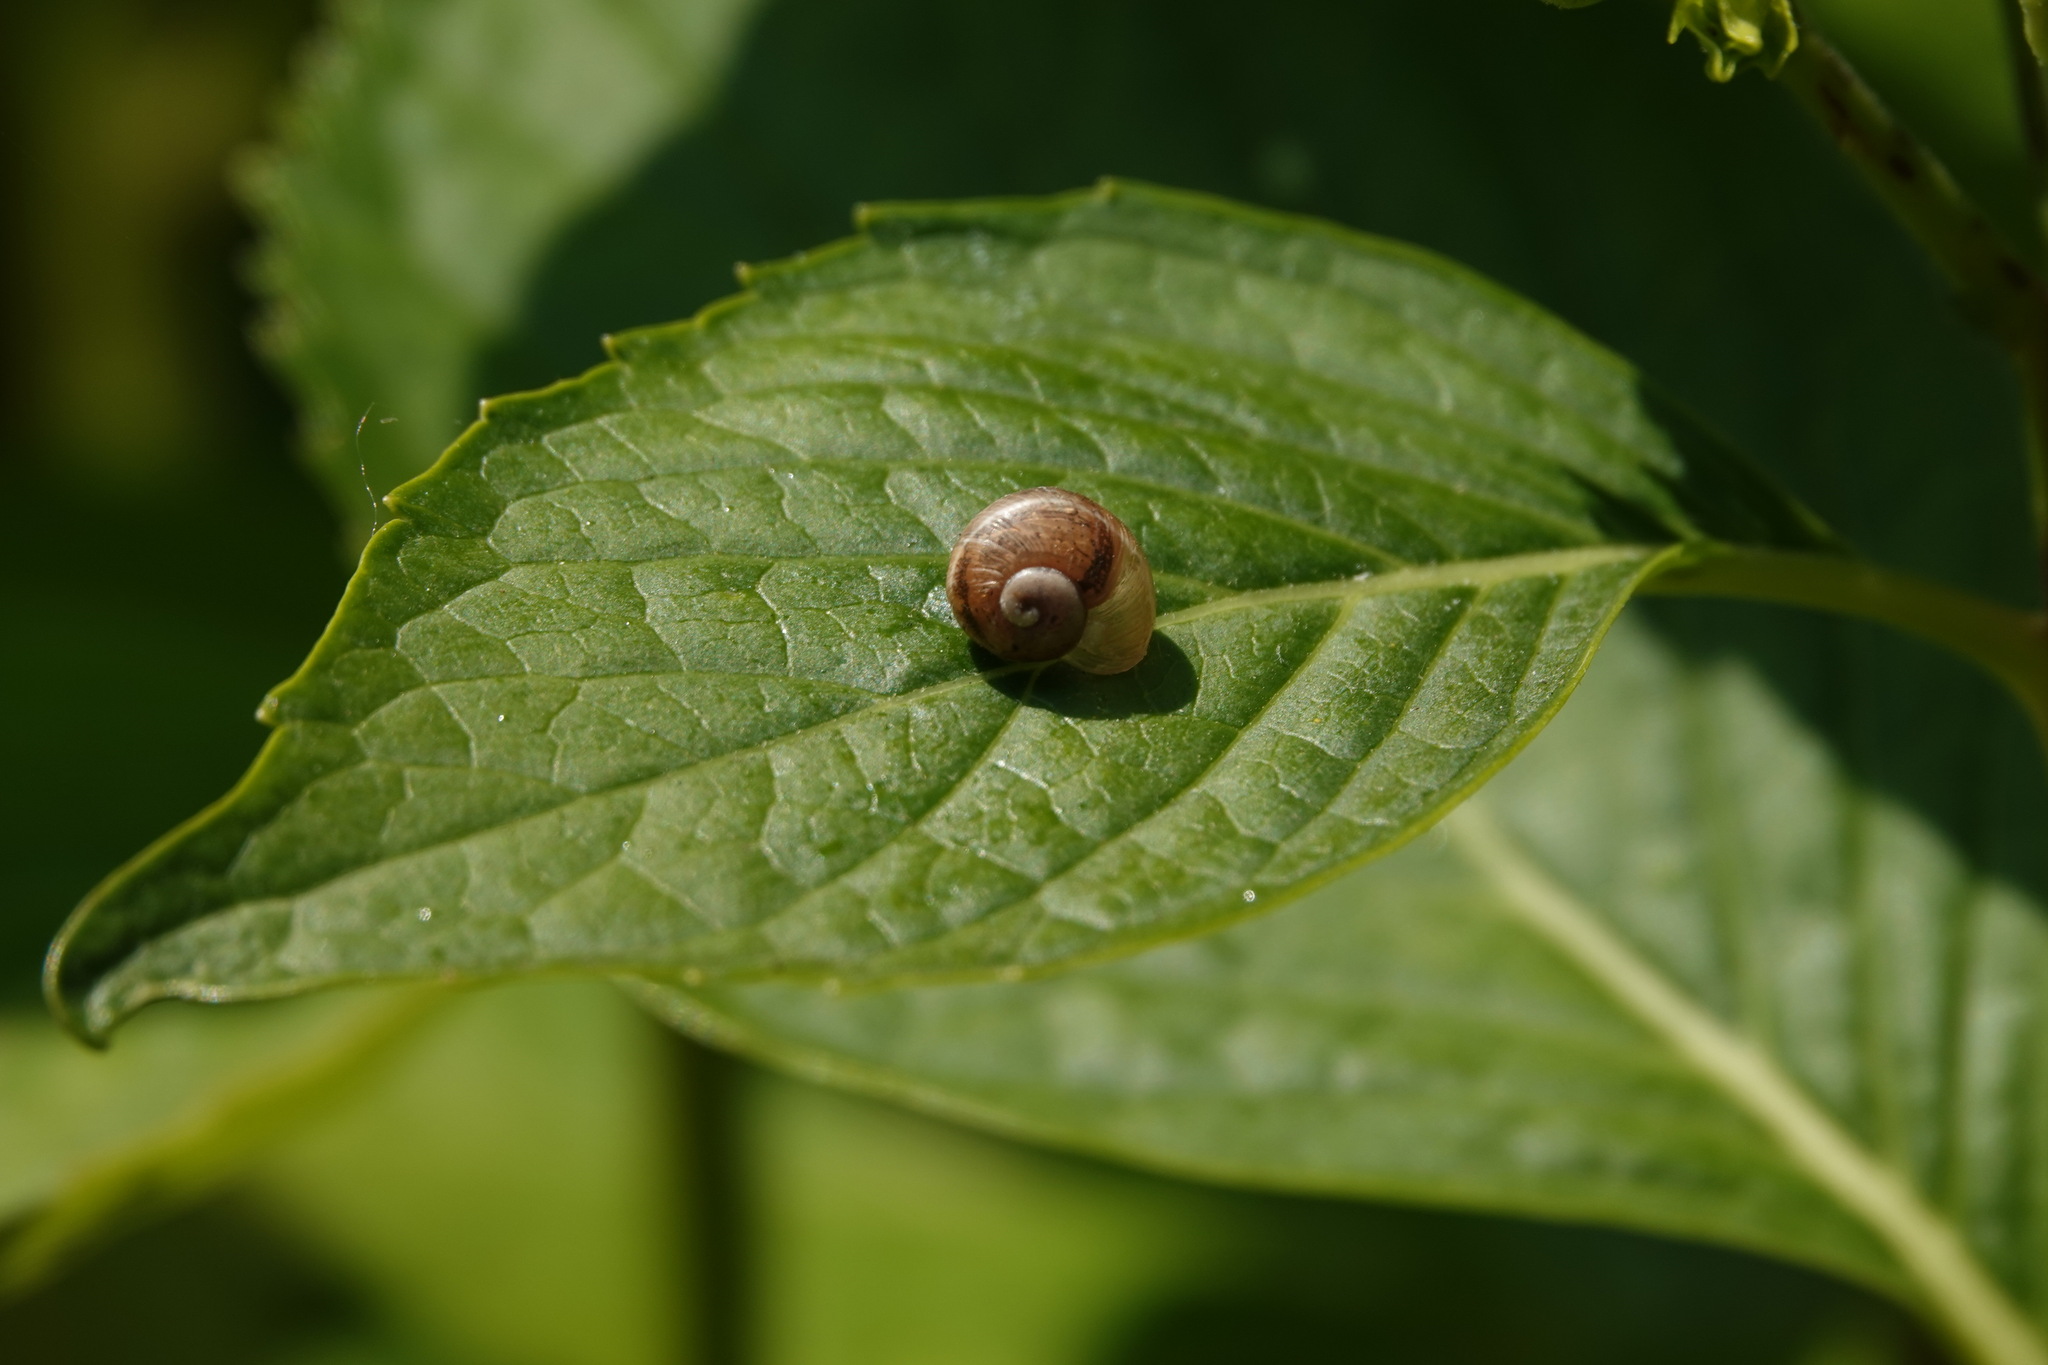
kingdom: Animalia
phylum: Mollusca
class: Gastropoda
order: Stylommatophora
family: Helicidae
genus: Cornu
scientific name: Cornu aspersum
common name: Brown garden snail
